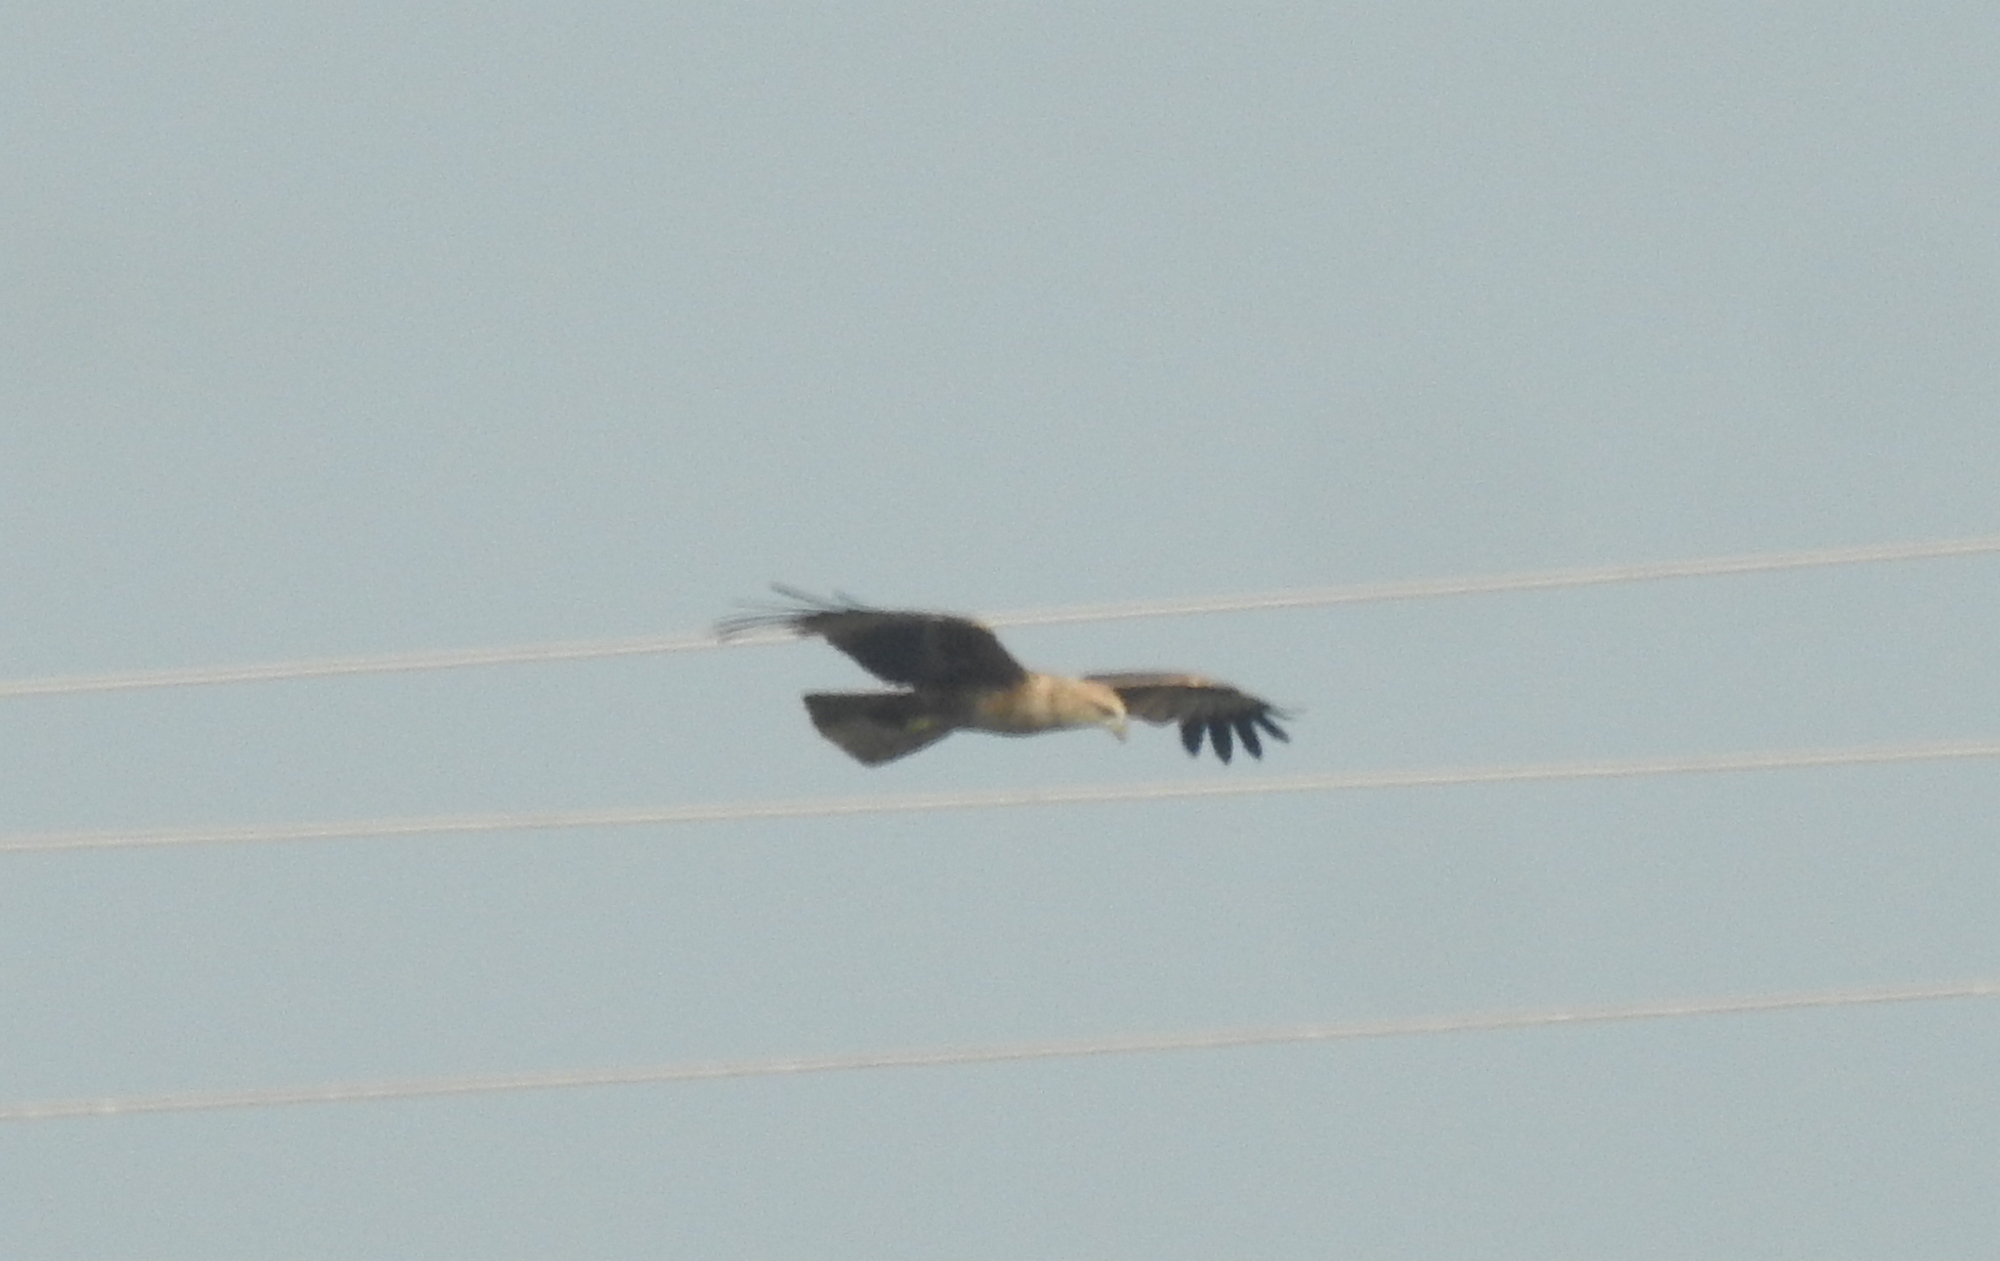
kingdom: Animalia
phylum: Chordata
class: Aves
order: Accipitriformes
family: Accipitridae
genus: Haliastur
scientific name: Haliastur indus
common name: Brahminy kite
